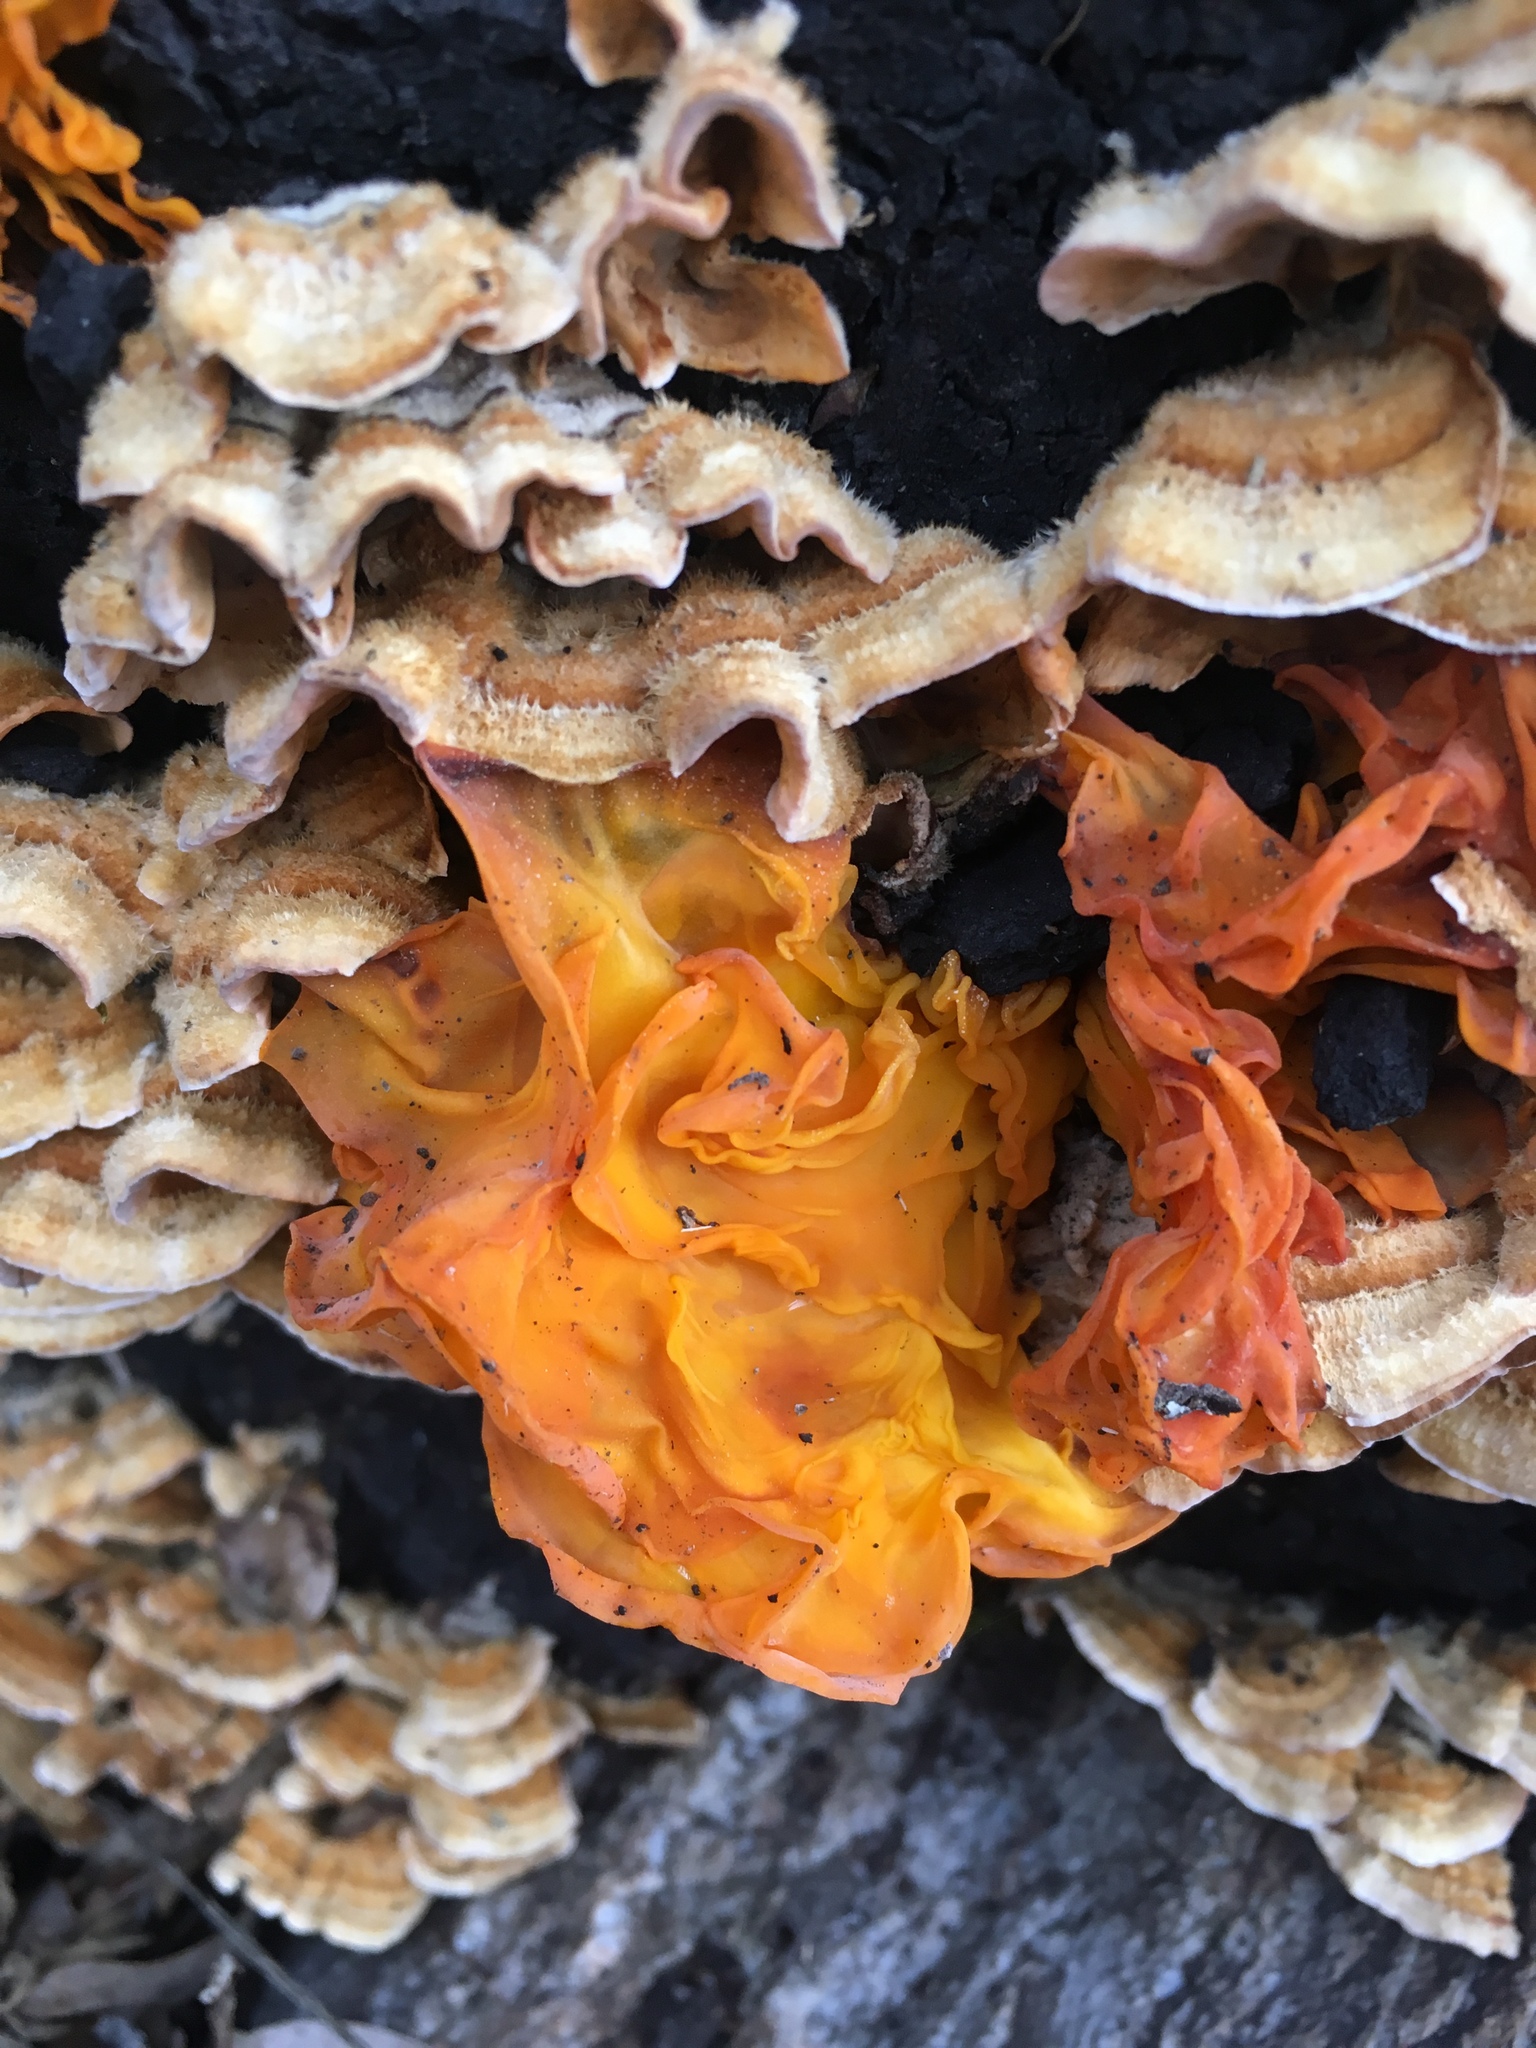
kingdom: Fungi
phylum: Basidiomycota
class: Tremellomycetes
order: Tremellales
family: Naemateliaceae
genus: Naematelia
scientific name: Naematelia aurantia
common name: Golden ear
